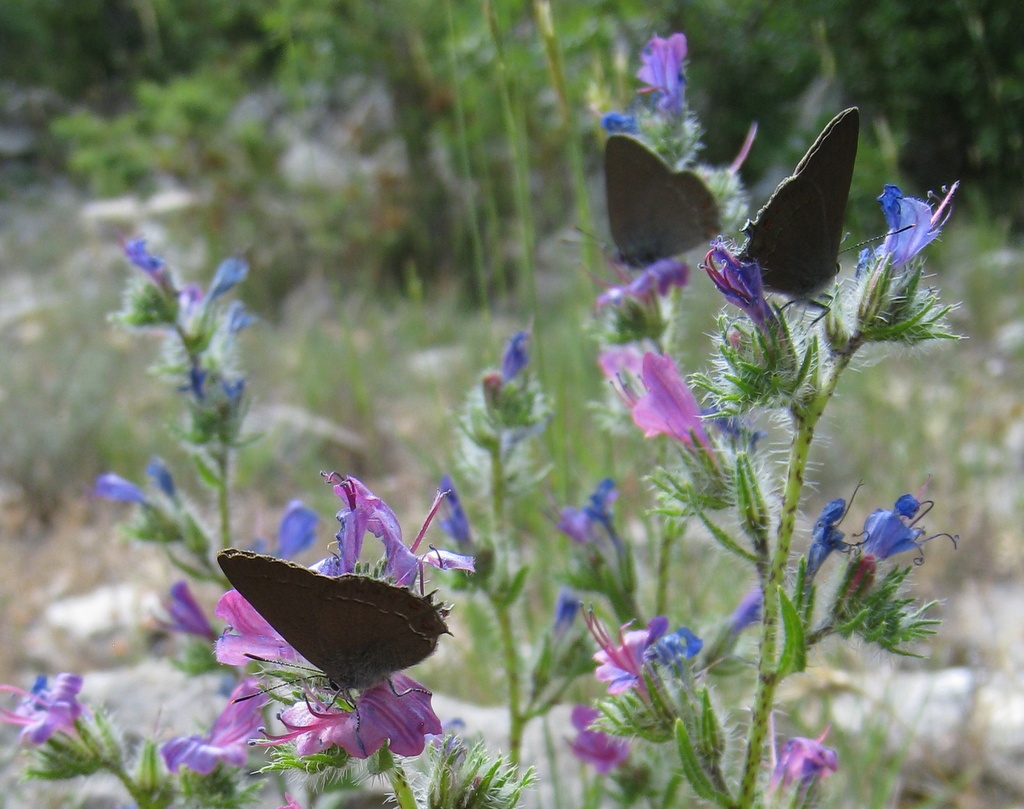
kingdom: Animalia
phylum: Arthropoda
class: Insecta
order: Lepidoptera
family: Lycaenidae
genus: Fixsenia
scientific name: Fixsenia esculi
